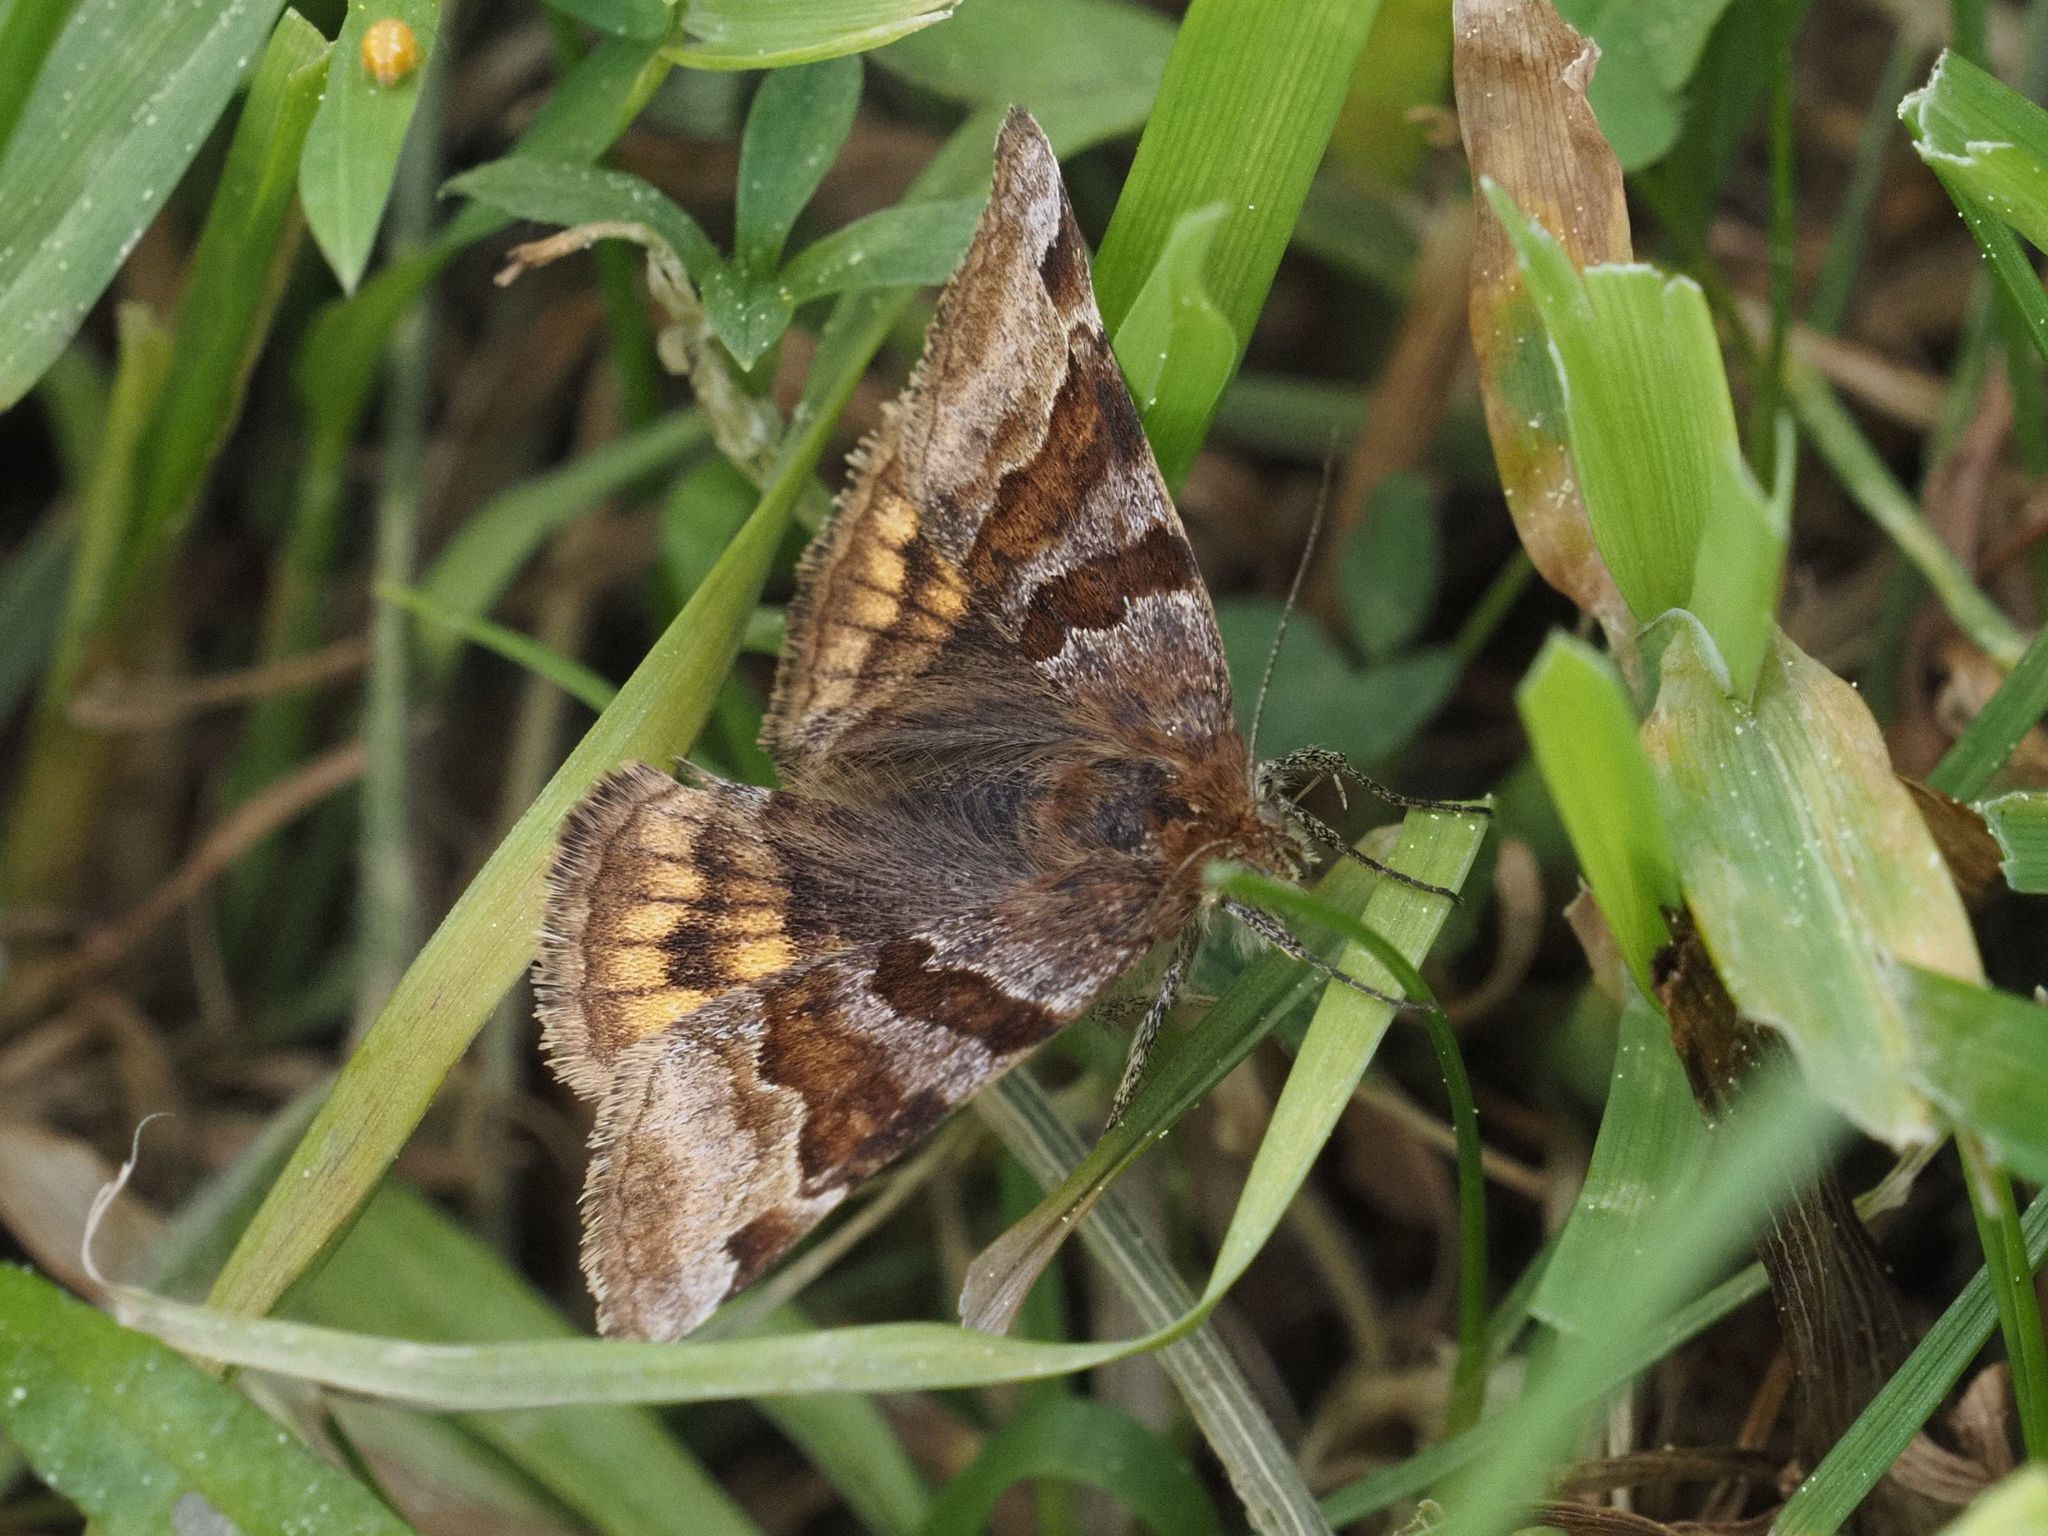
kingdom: Animalia
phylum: Arthropoda
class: Insecta
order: Lepidoptera
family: Erebidae
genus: Euclidia
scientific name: Euclidia glyphica
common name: Burnet companion
